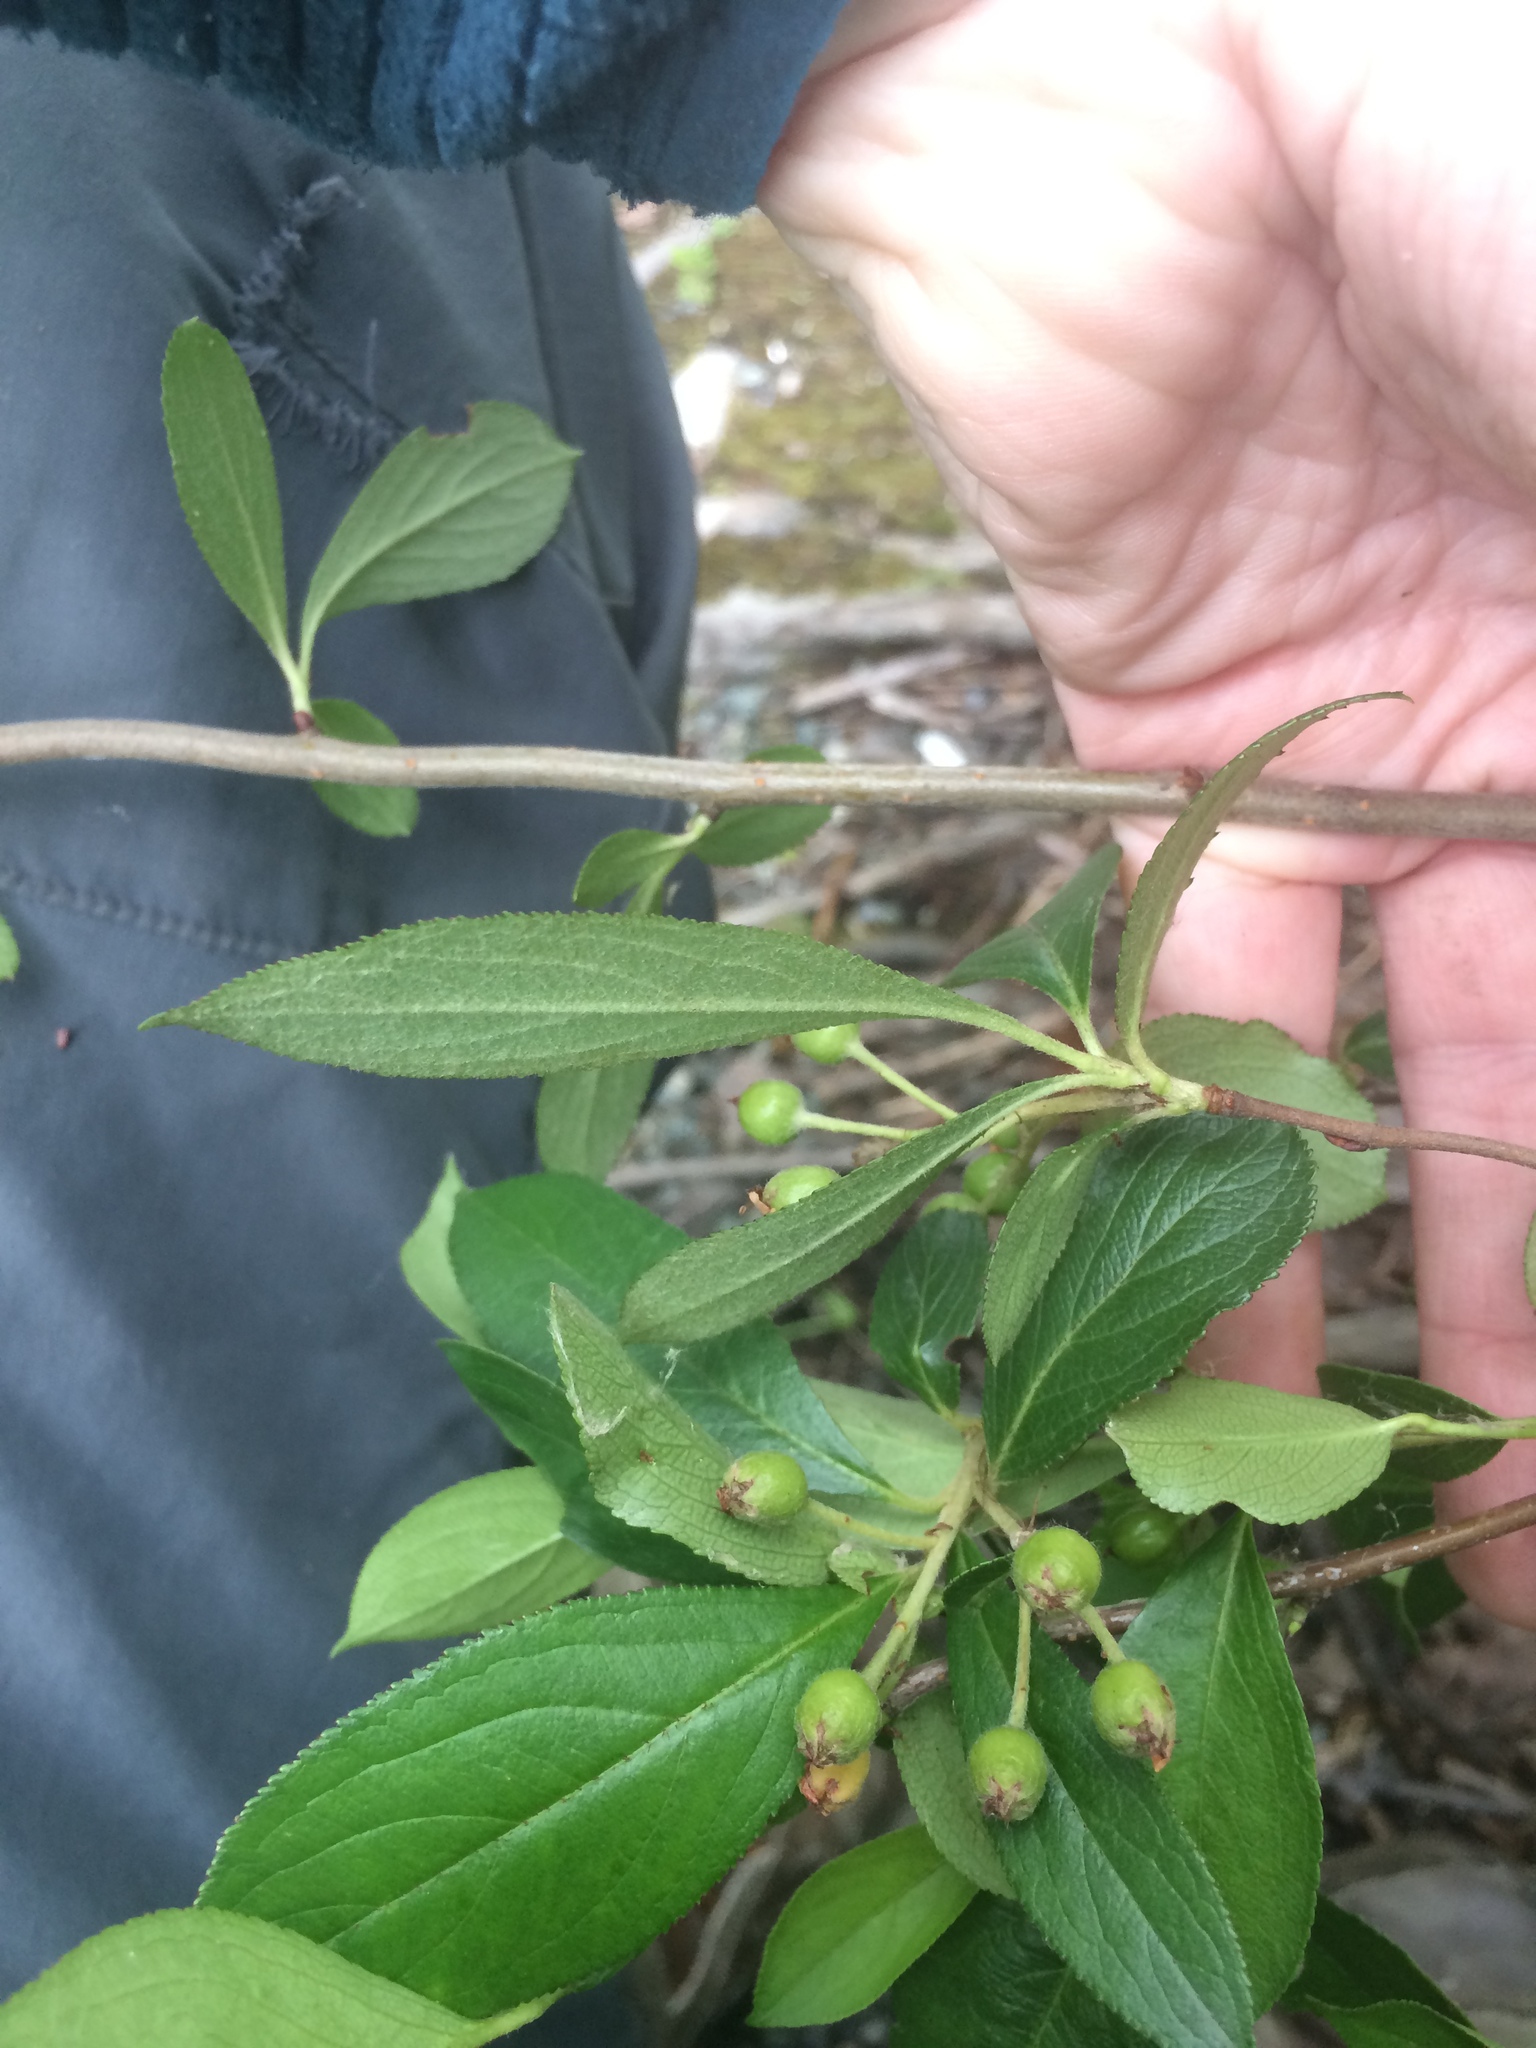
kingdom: Plantae
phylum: Tracheophyta
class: Magnoliopsida
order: Rosales
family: Rosaceae
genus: Aronia
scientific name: Aronia prunifolia
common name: Purple chokeberry
